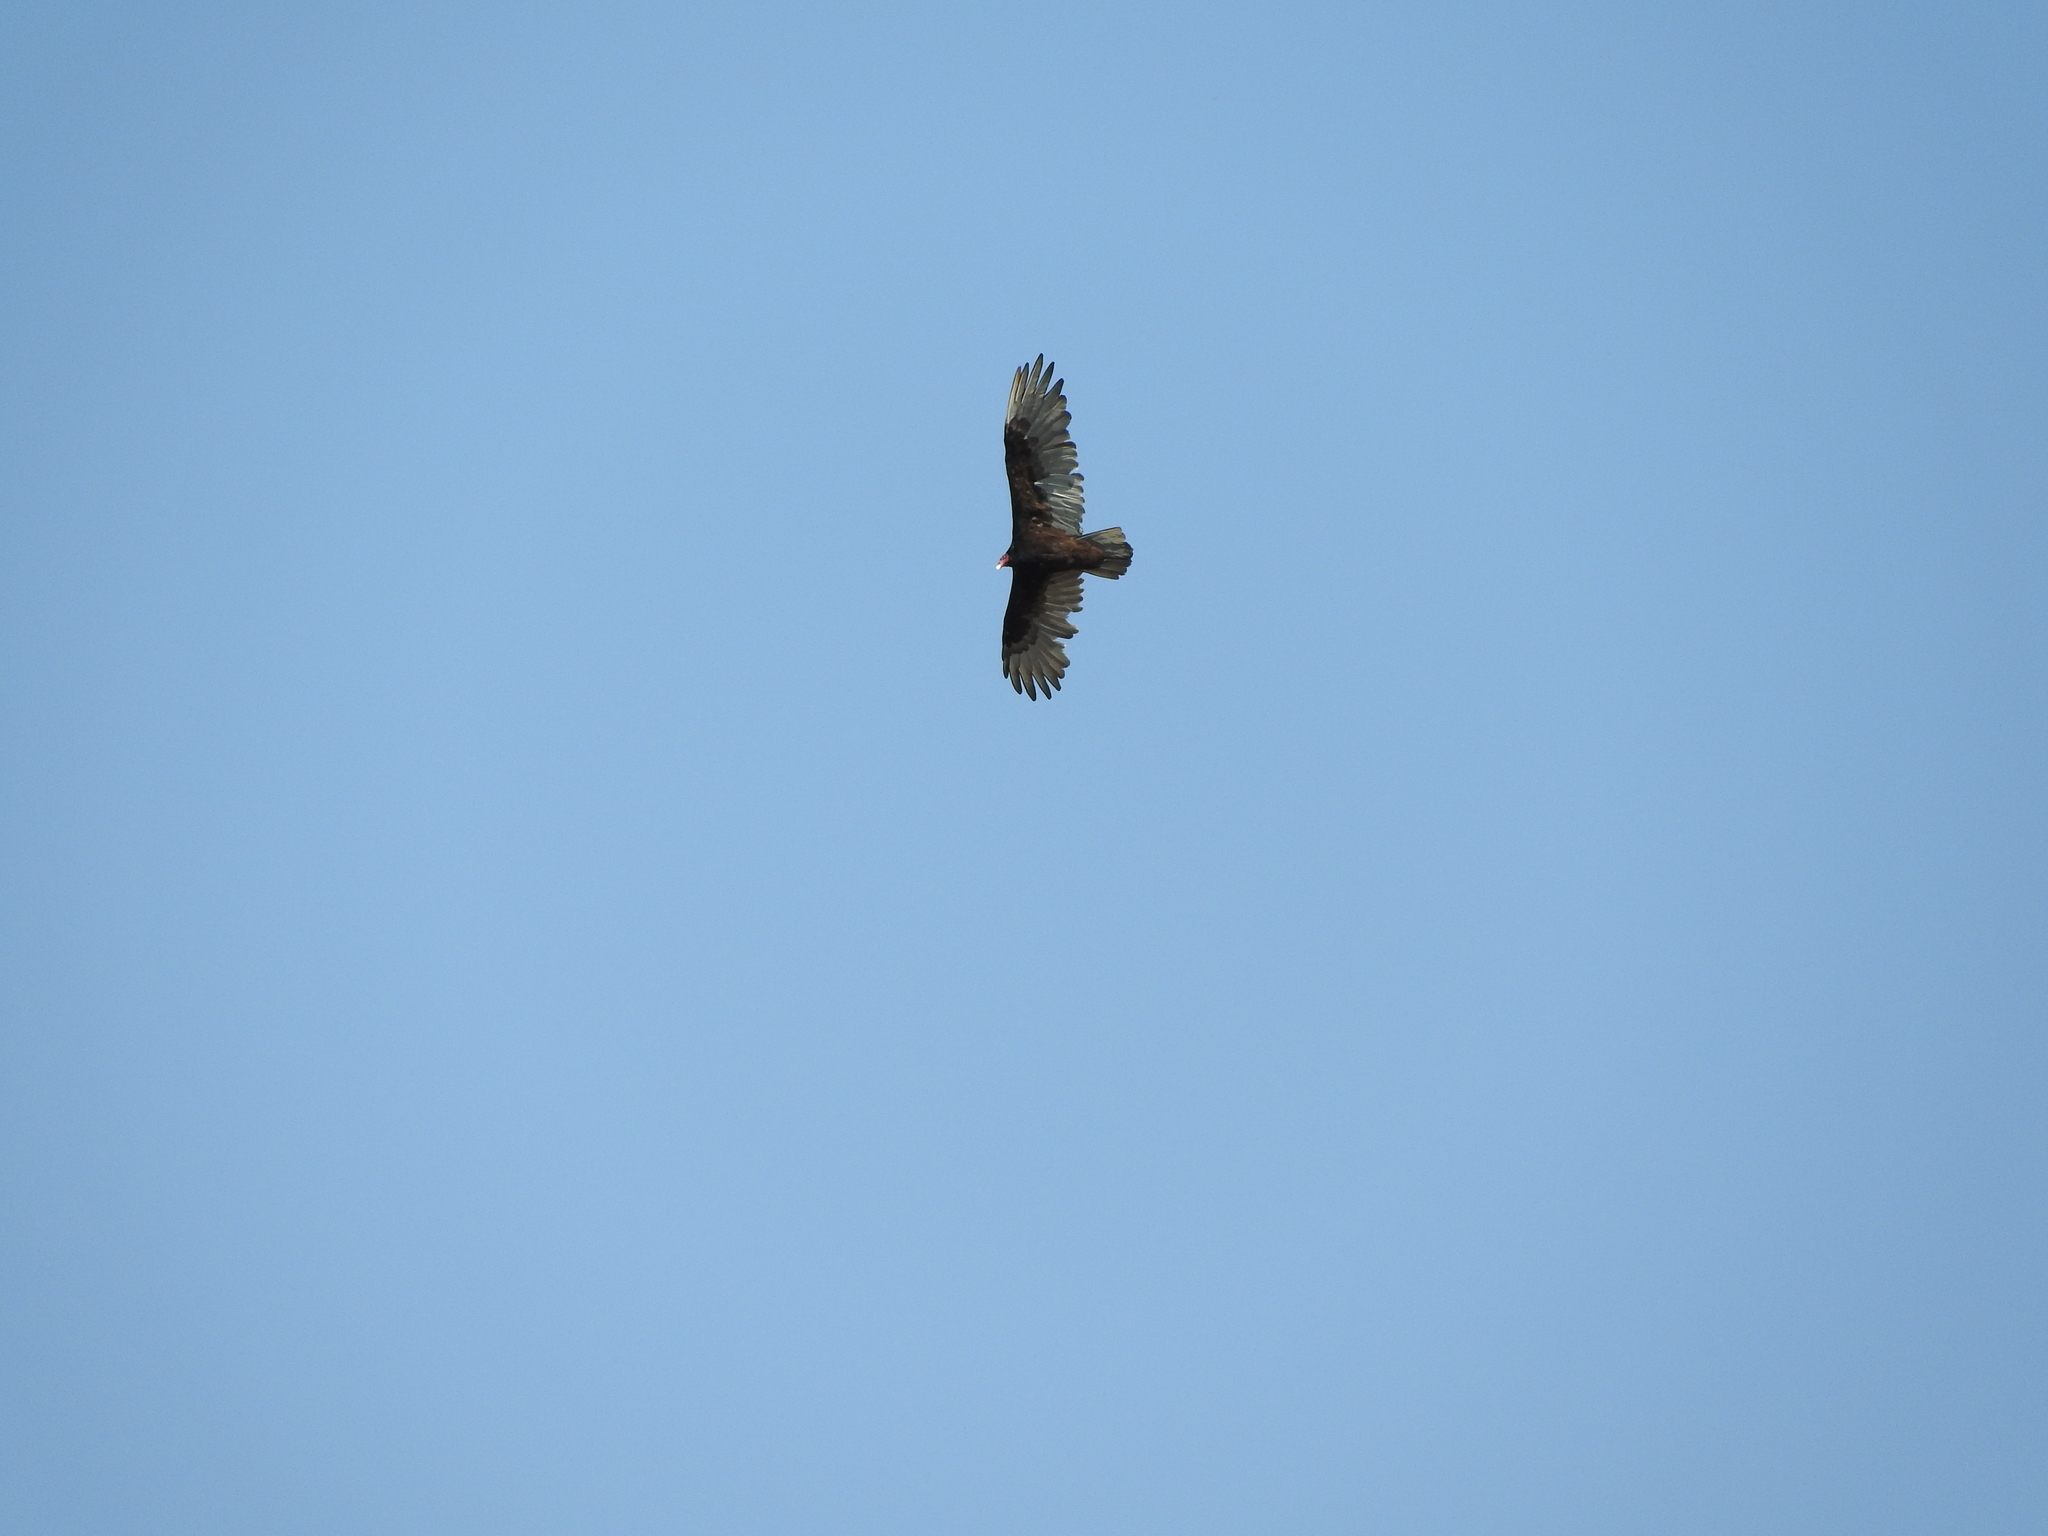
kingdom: Animalia
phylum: Chordata
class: Aves
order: Accipitriformes
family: Cathartidae
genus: Cathartes
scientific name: Cathartes aura
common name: Turkey vulture
